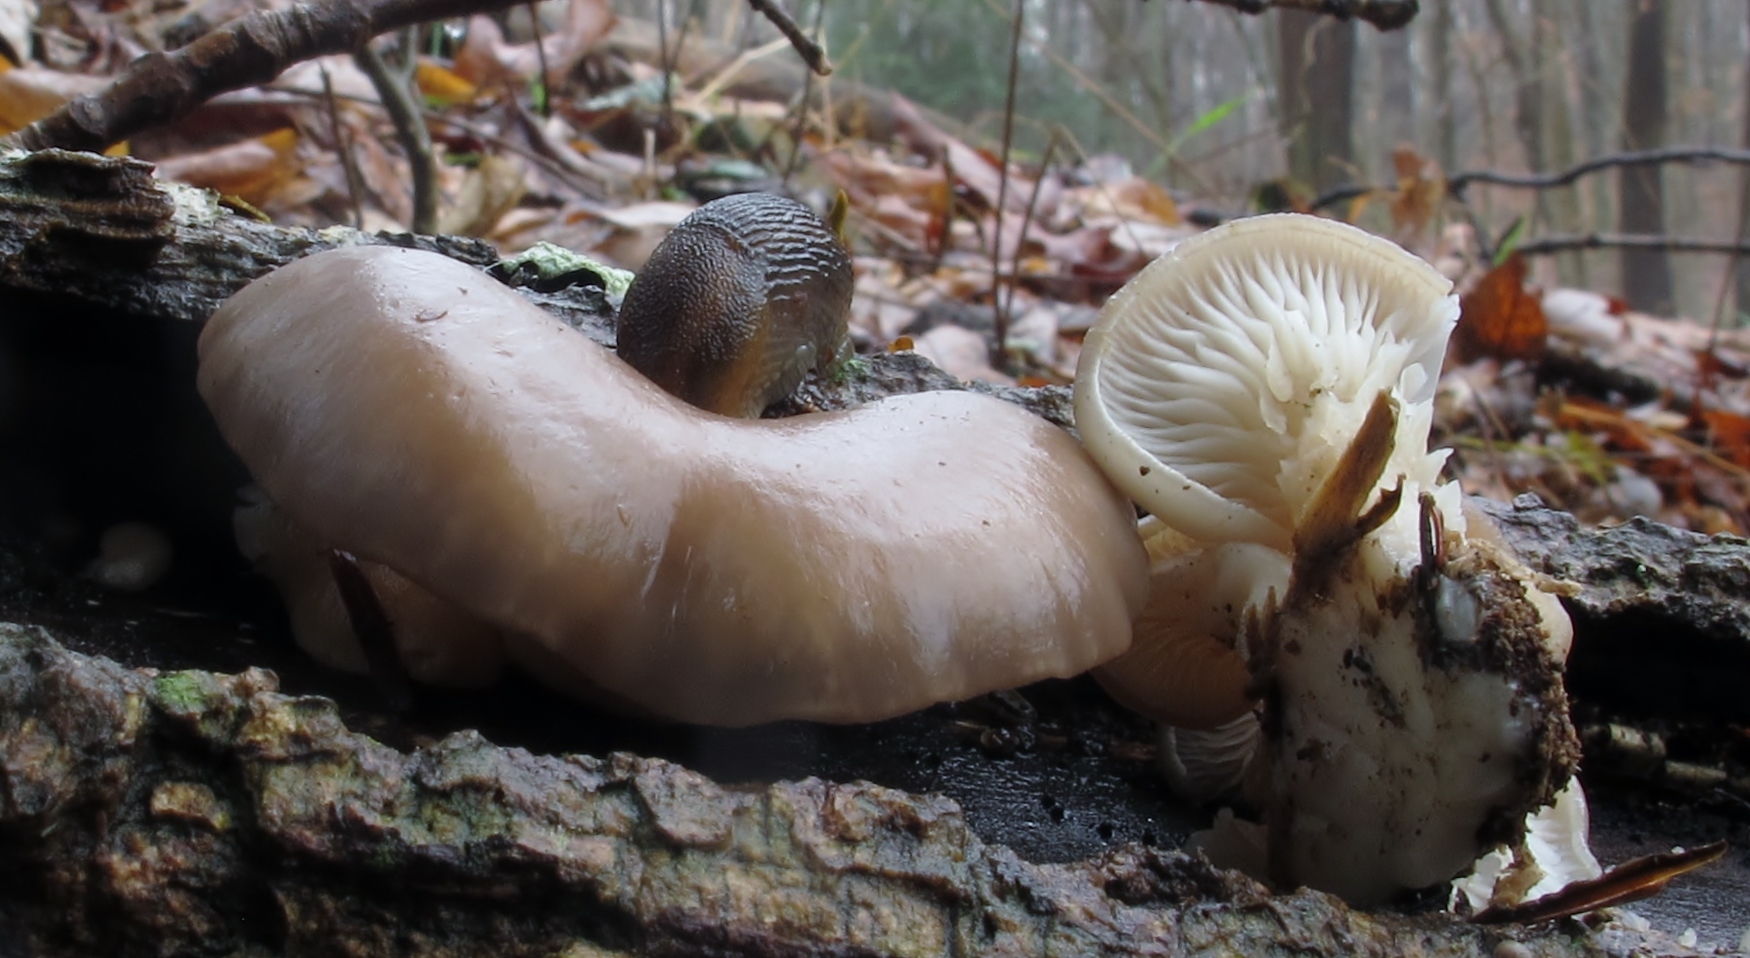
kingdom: Fungi
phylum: Basidiomycota
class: Agaricomycetes
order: Agaricales
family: Pleurotaceae
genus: Pleurotus
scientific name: Pleurotus ostreatus
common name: Oyster mushroom
